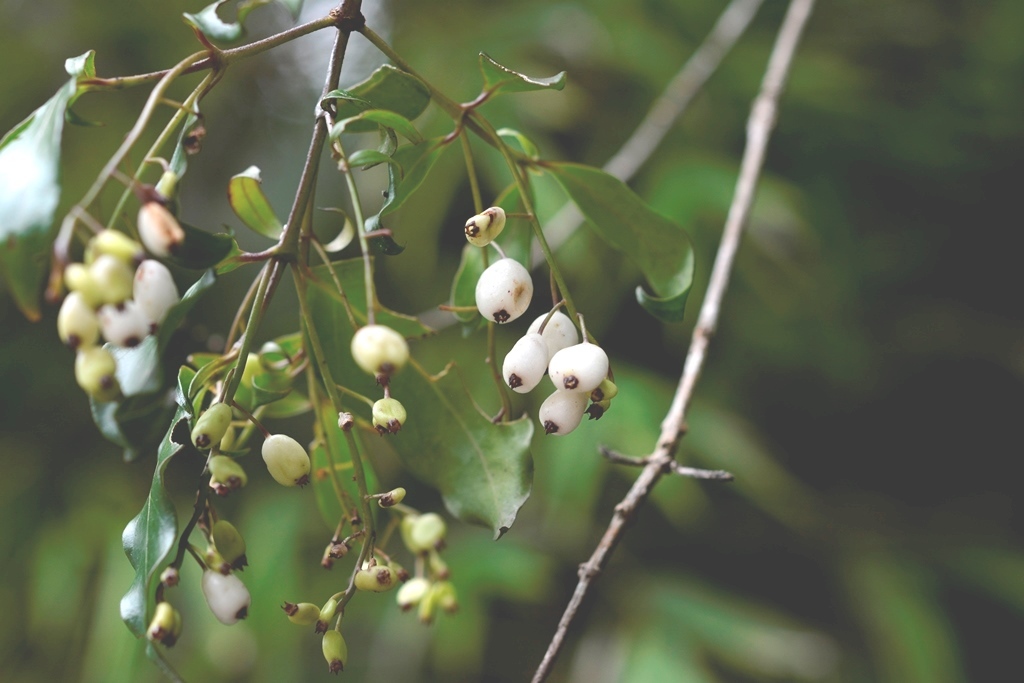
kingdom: Plantae
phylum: Tracheophyta
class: Magnoliopsida
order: Gentianales
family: Rubiaceae
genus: Chiococca
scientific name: Chiococca alba
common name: Snowberry
